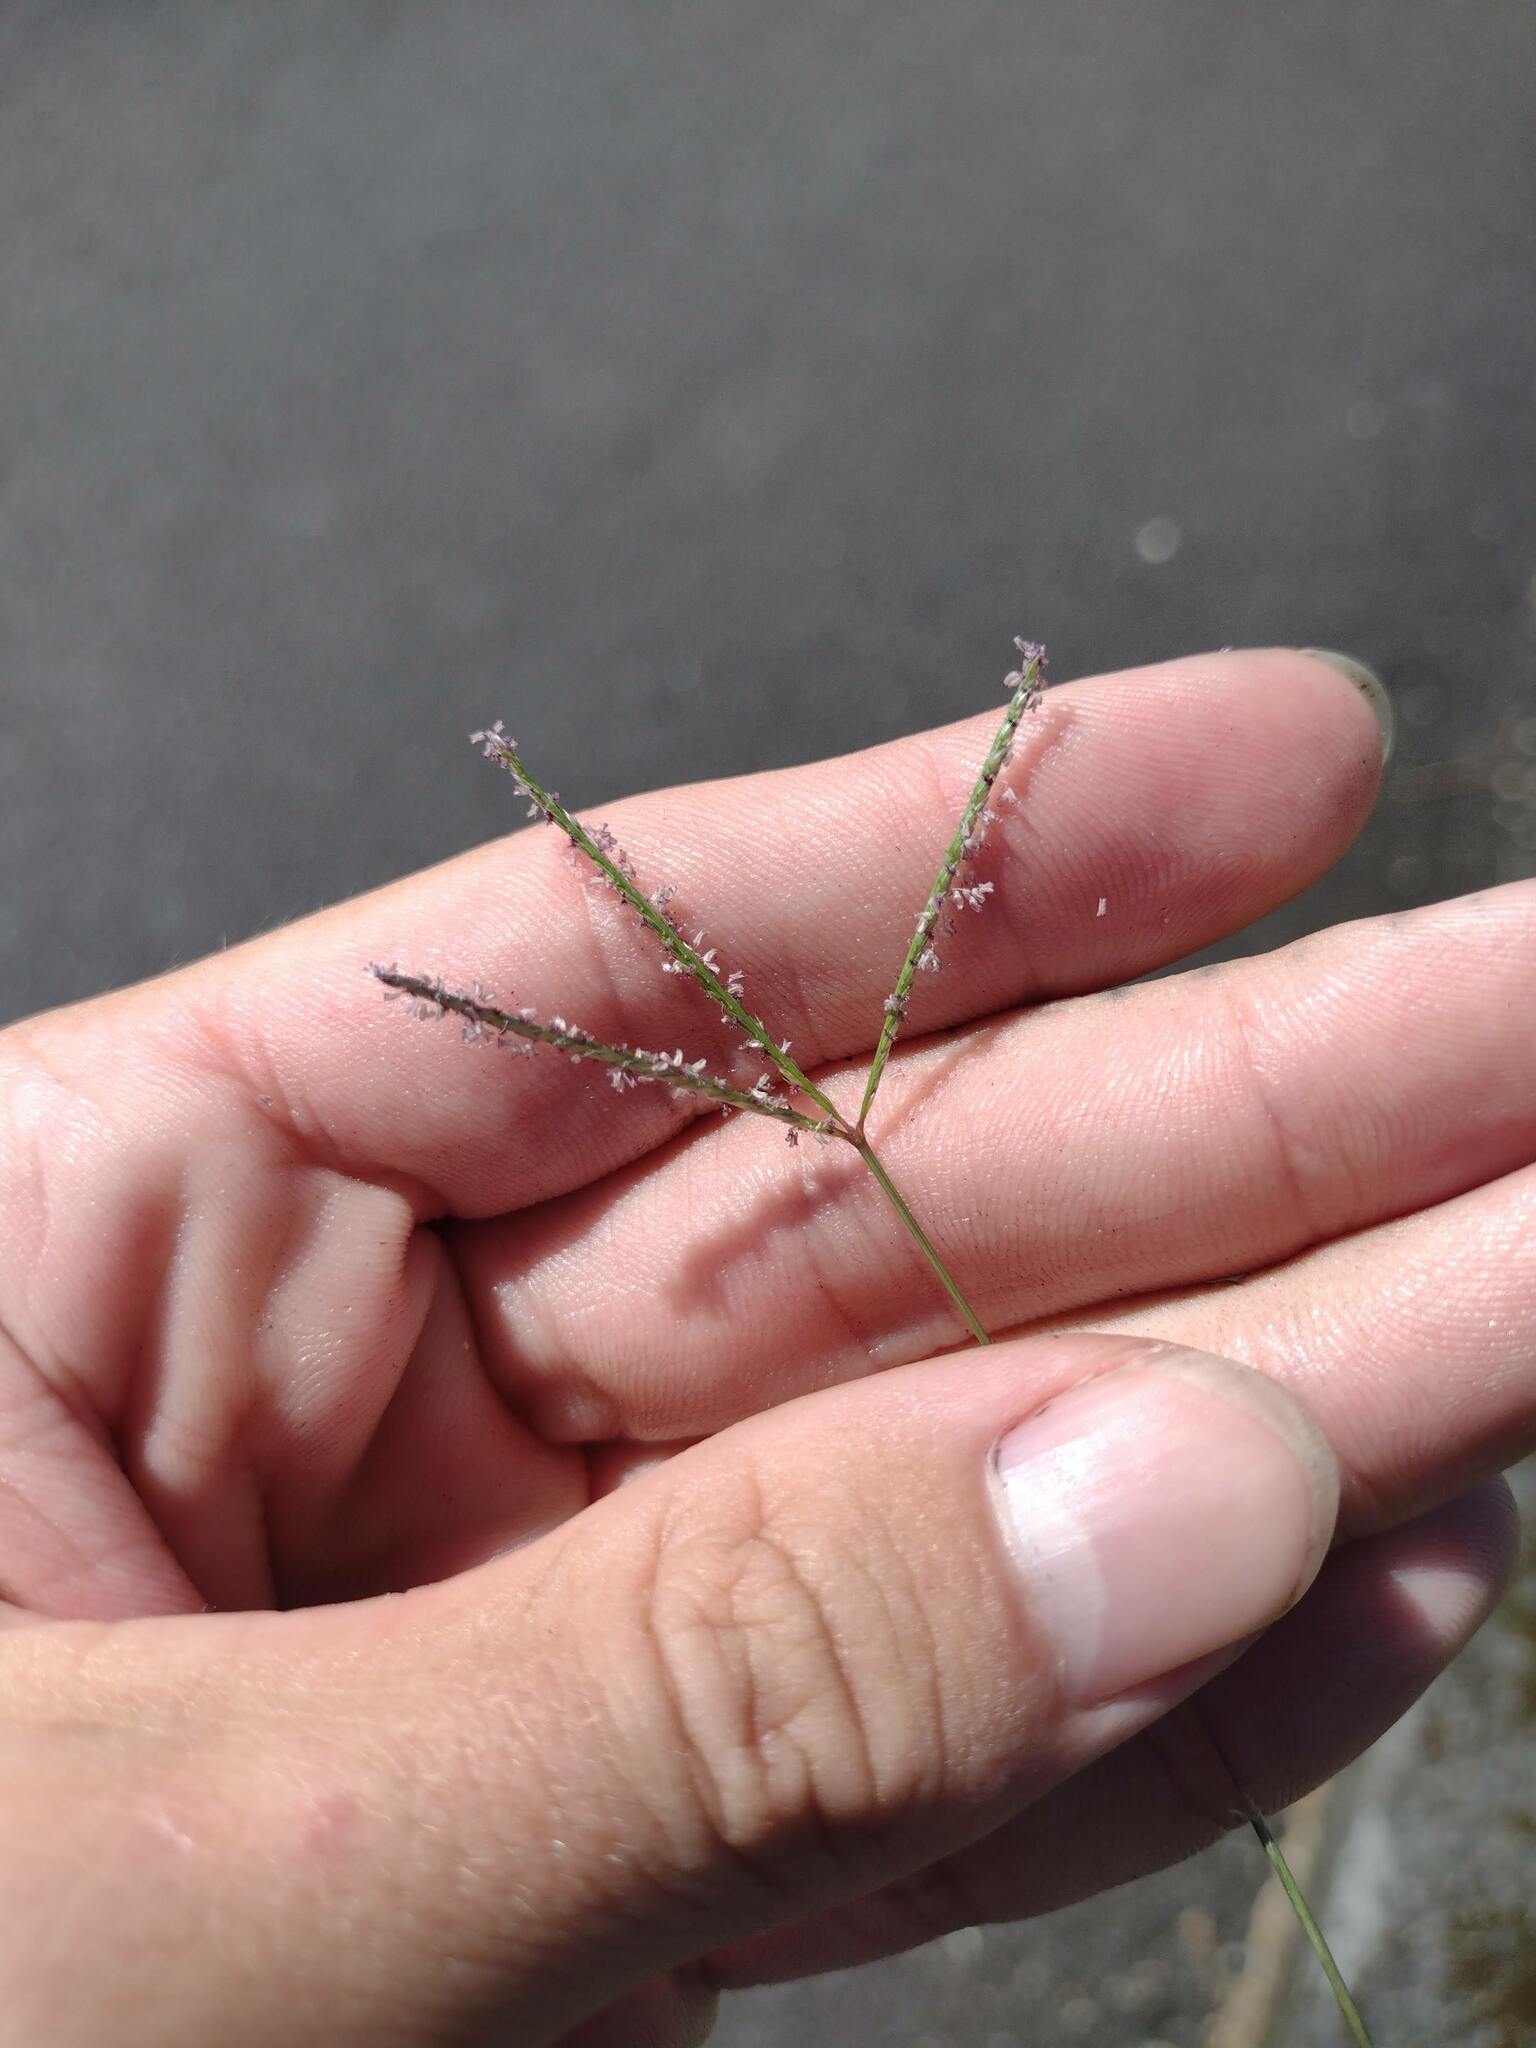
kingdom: Plantae
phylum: Tracheophyta
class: Liliopsida
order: Poales
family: Poaceae
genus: Cynodon
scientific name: Cynodon dactylon
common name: Bermuda grass
